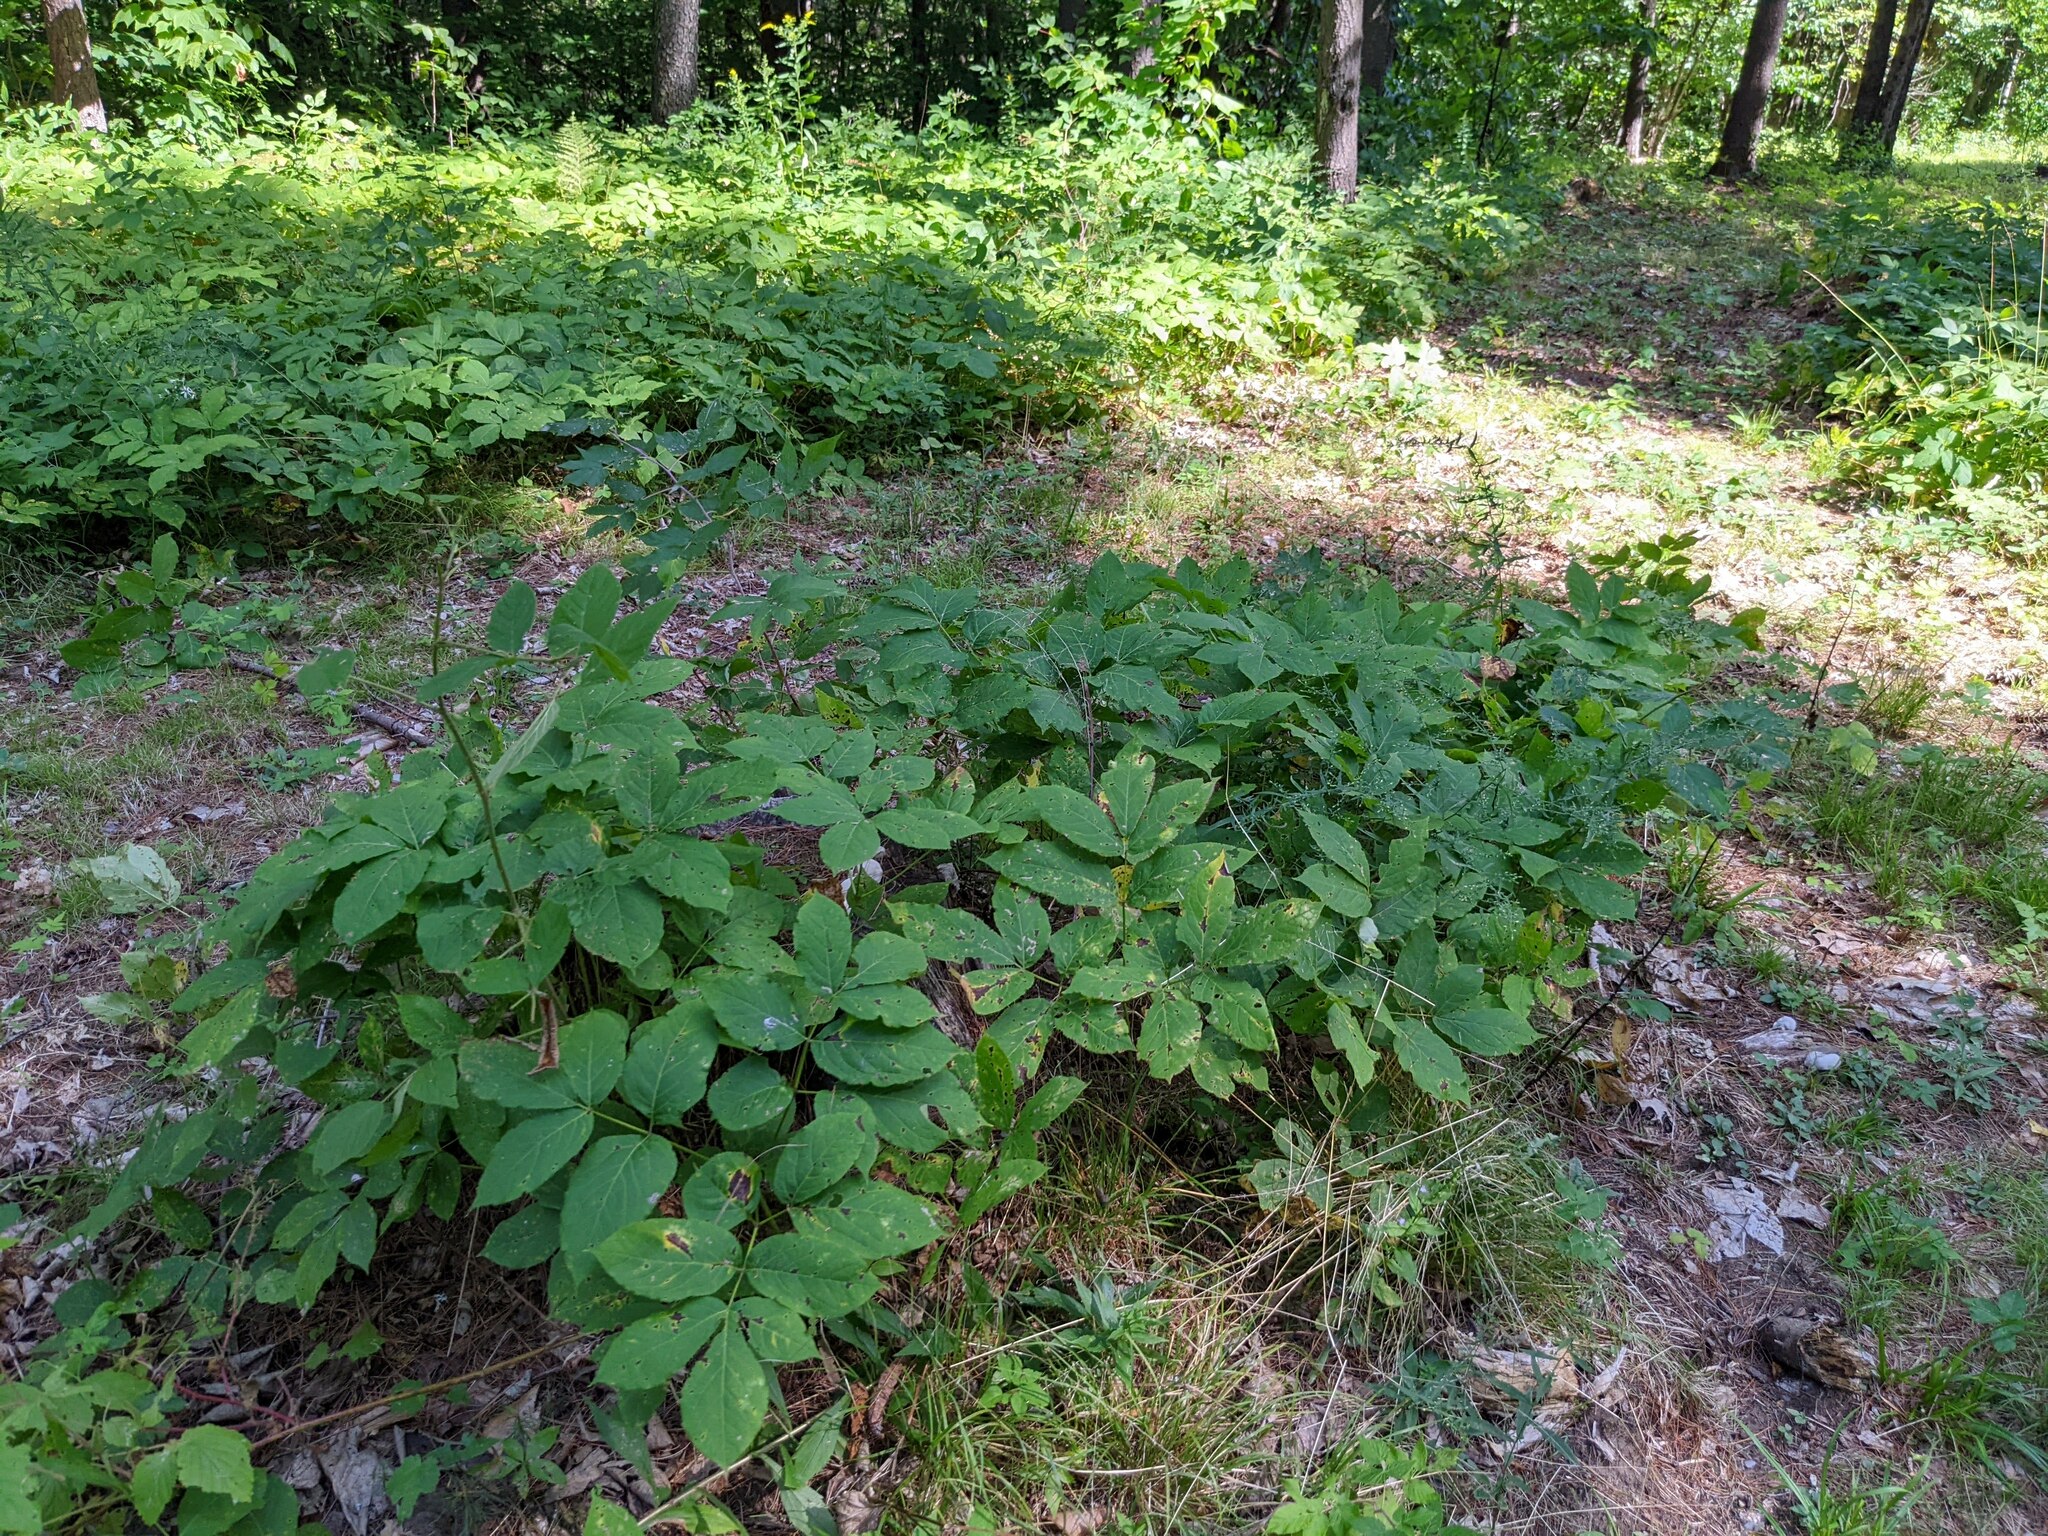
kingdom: Plantae
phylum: Tracheophyta
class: Magnoliopsida
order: Apiales
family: Araliaceae
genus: Aralia
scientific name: Aralia nudicaulis
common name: Wild sarsaparilla
